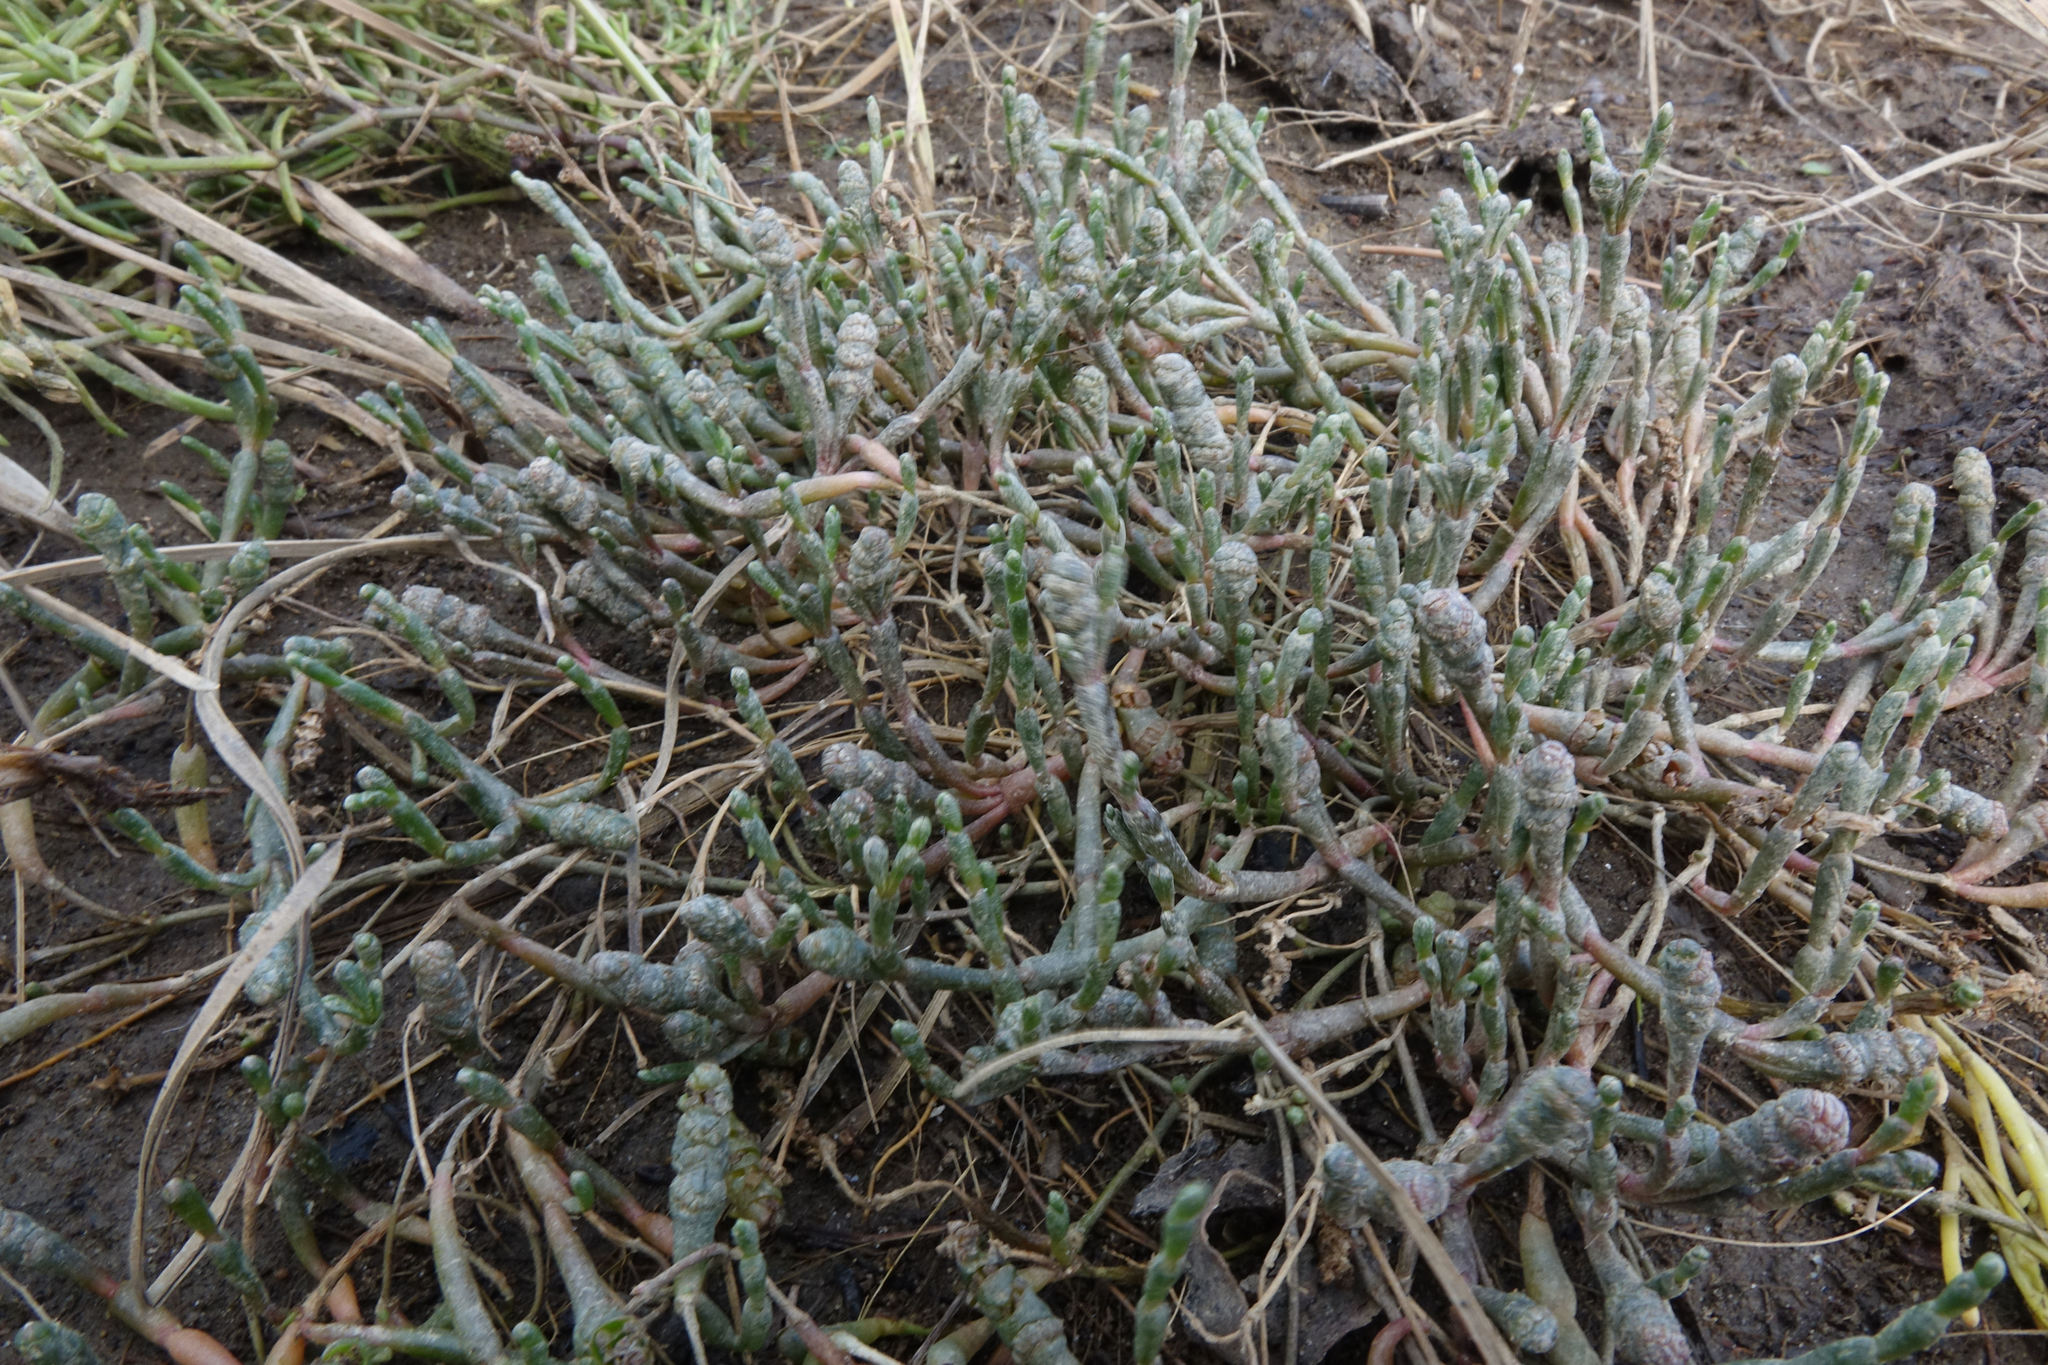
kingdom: Plantae
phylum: Tracheophyta
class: Magnoliopsida
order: Caryophyllales
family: Amaranthaceae
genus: Salicornia
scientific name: Salicornia quinqueflora
